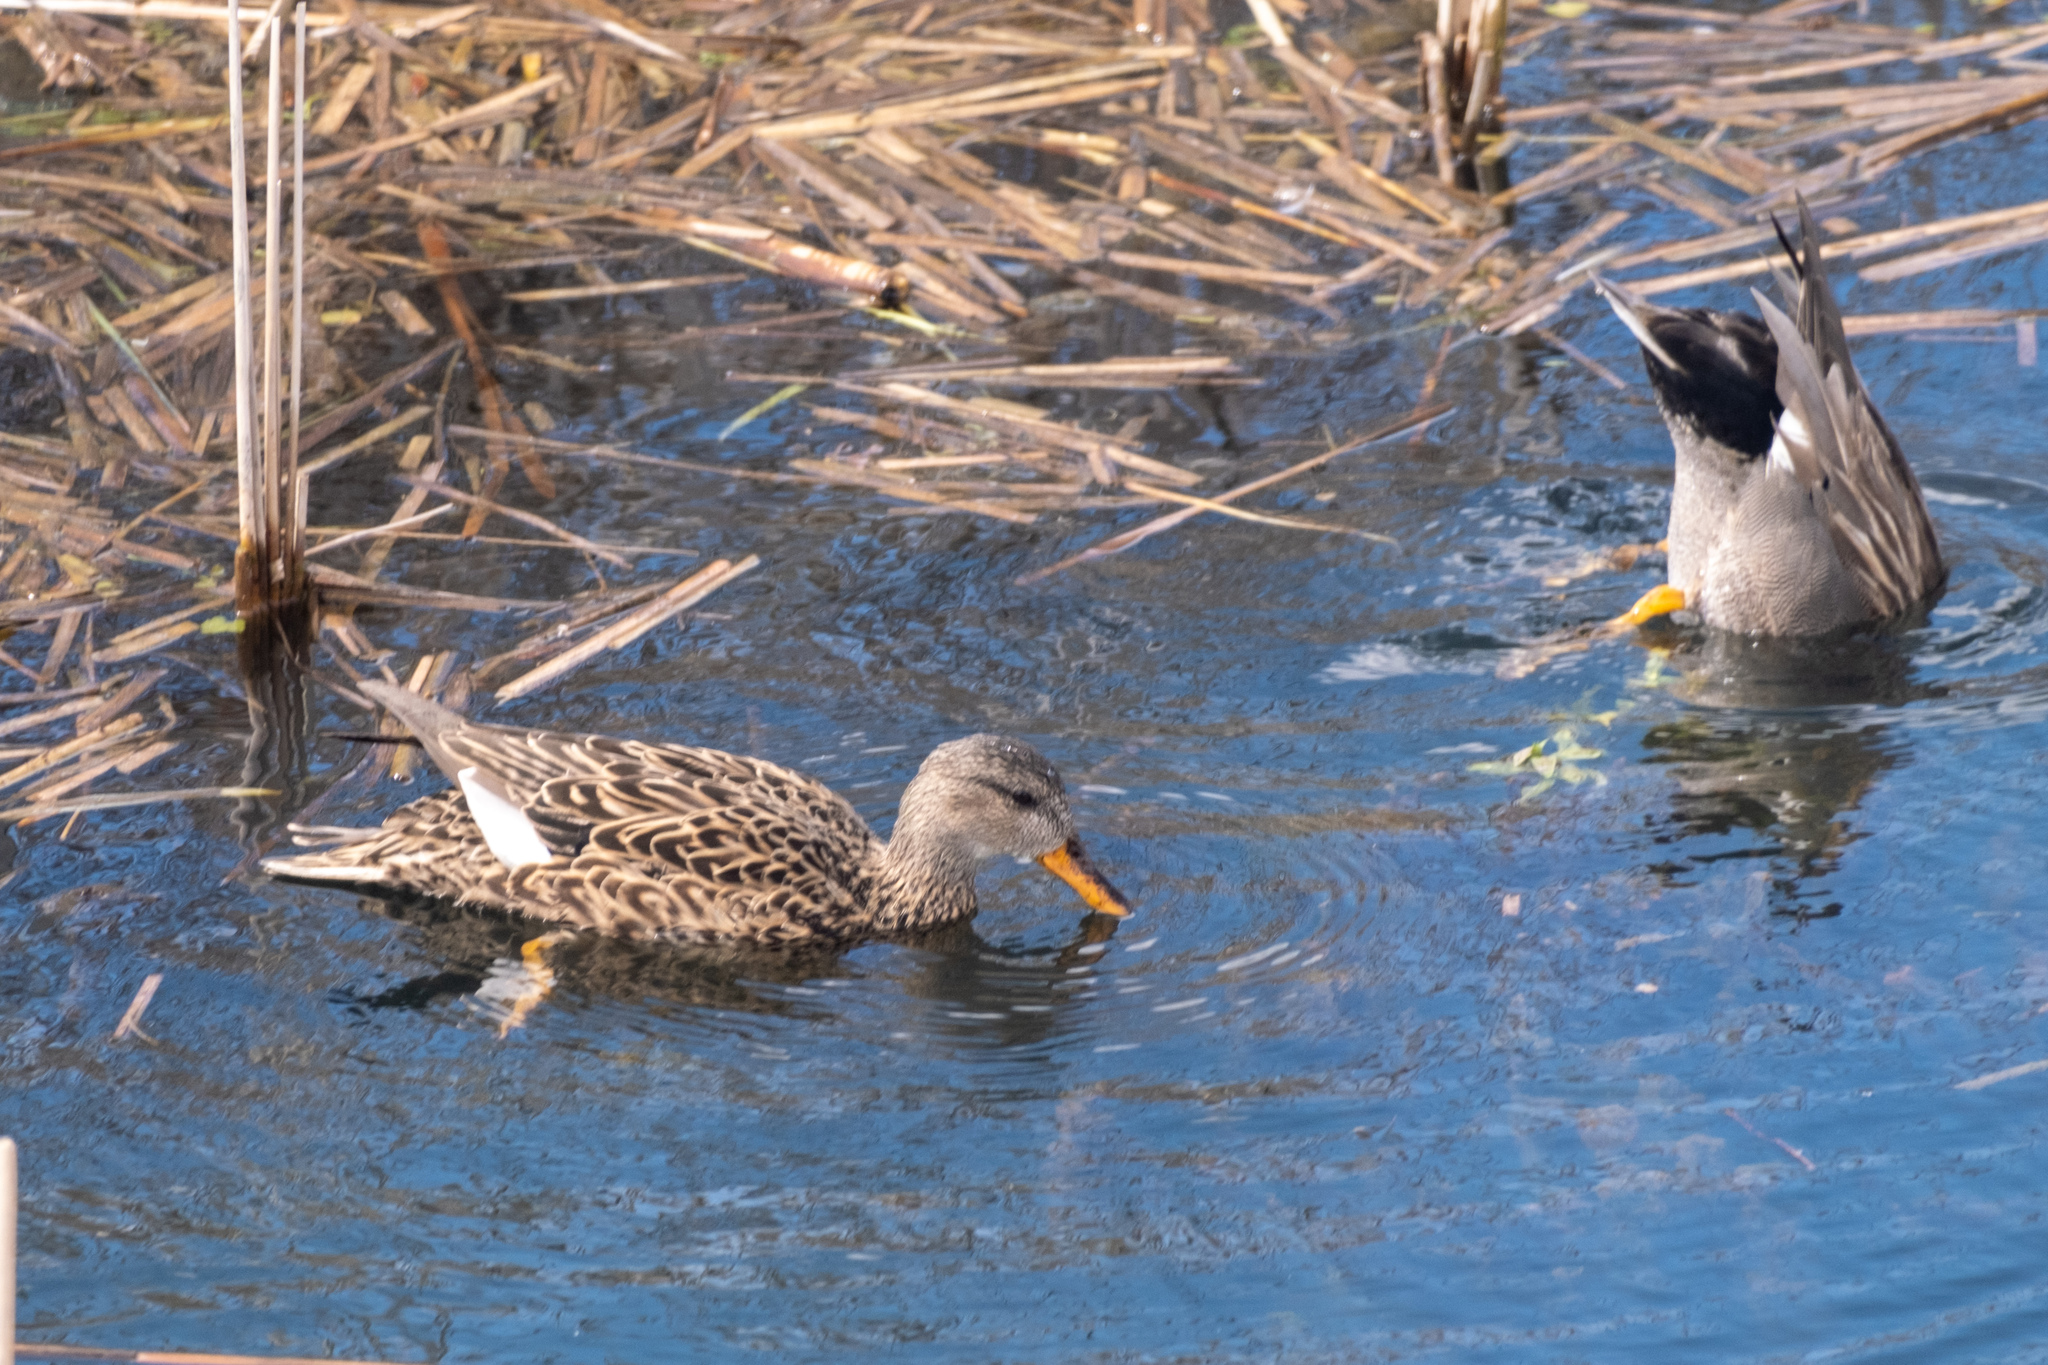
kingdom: Animalia
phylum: Chordata
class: Aves
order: Anseriformes
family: Anatidae
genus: Mareca
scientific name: Mareca strepera
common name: Gadwall
